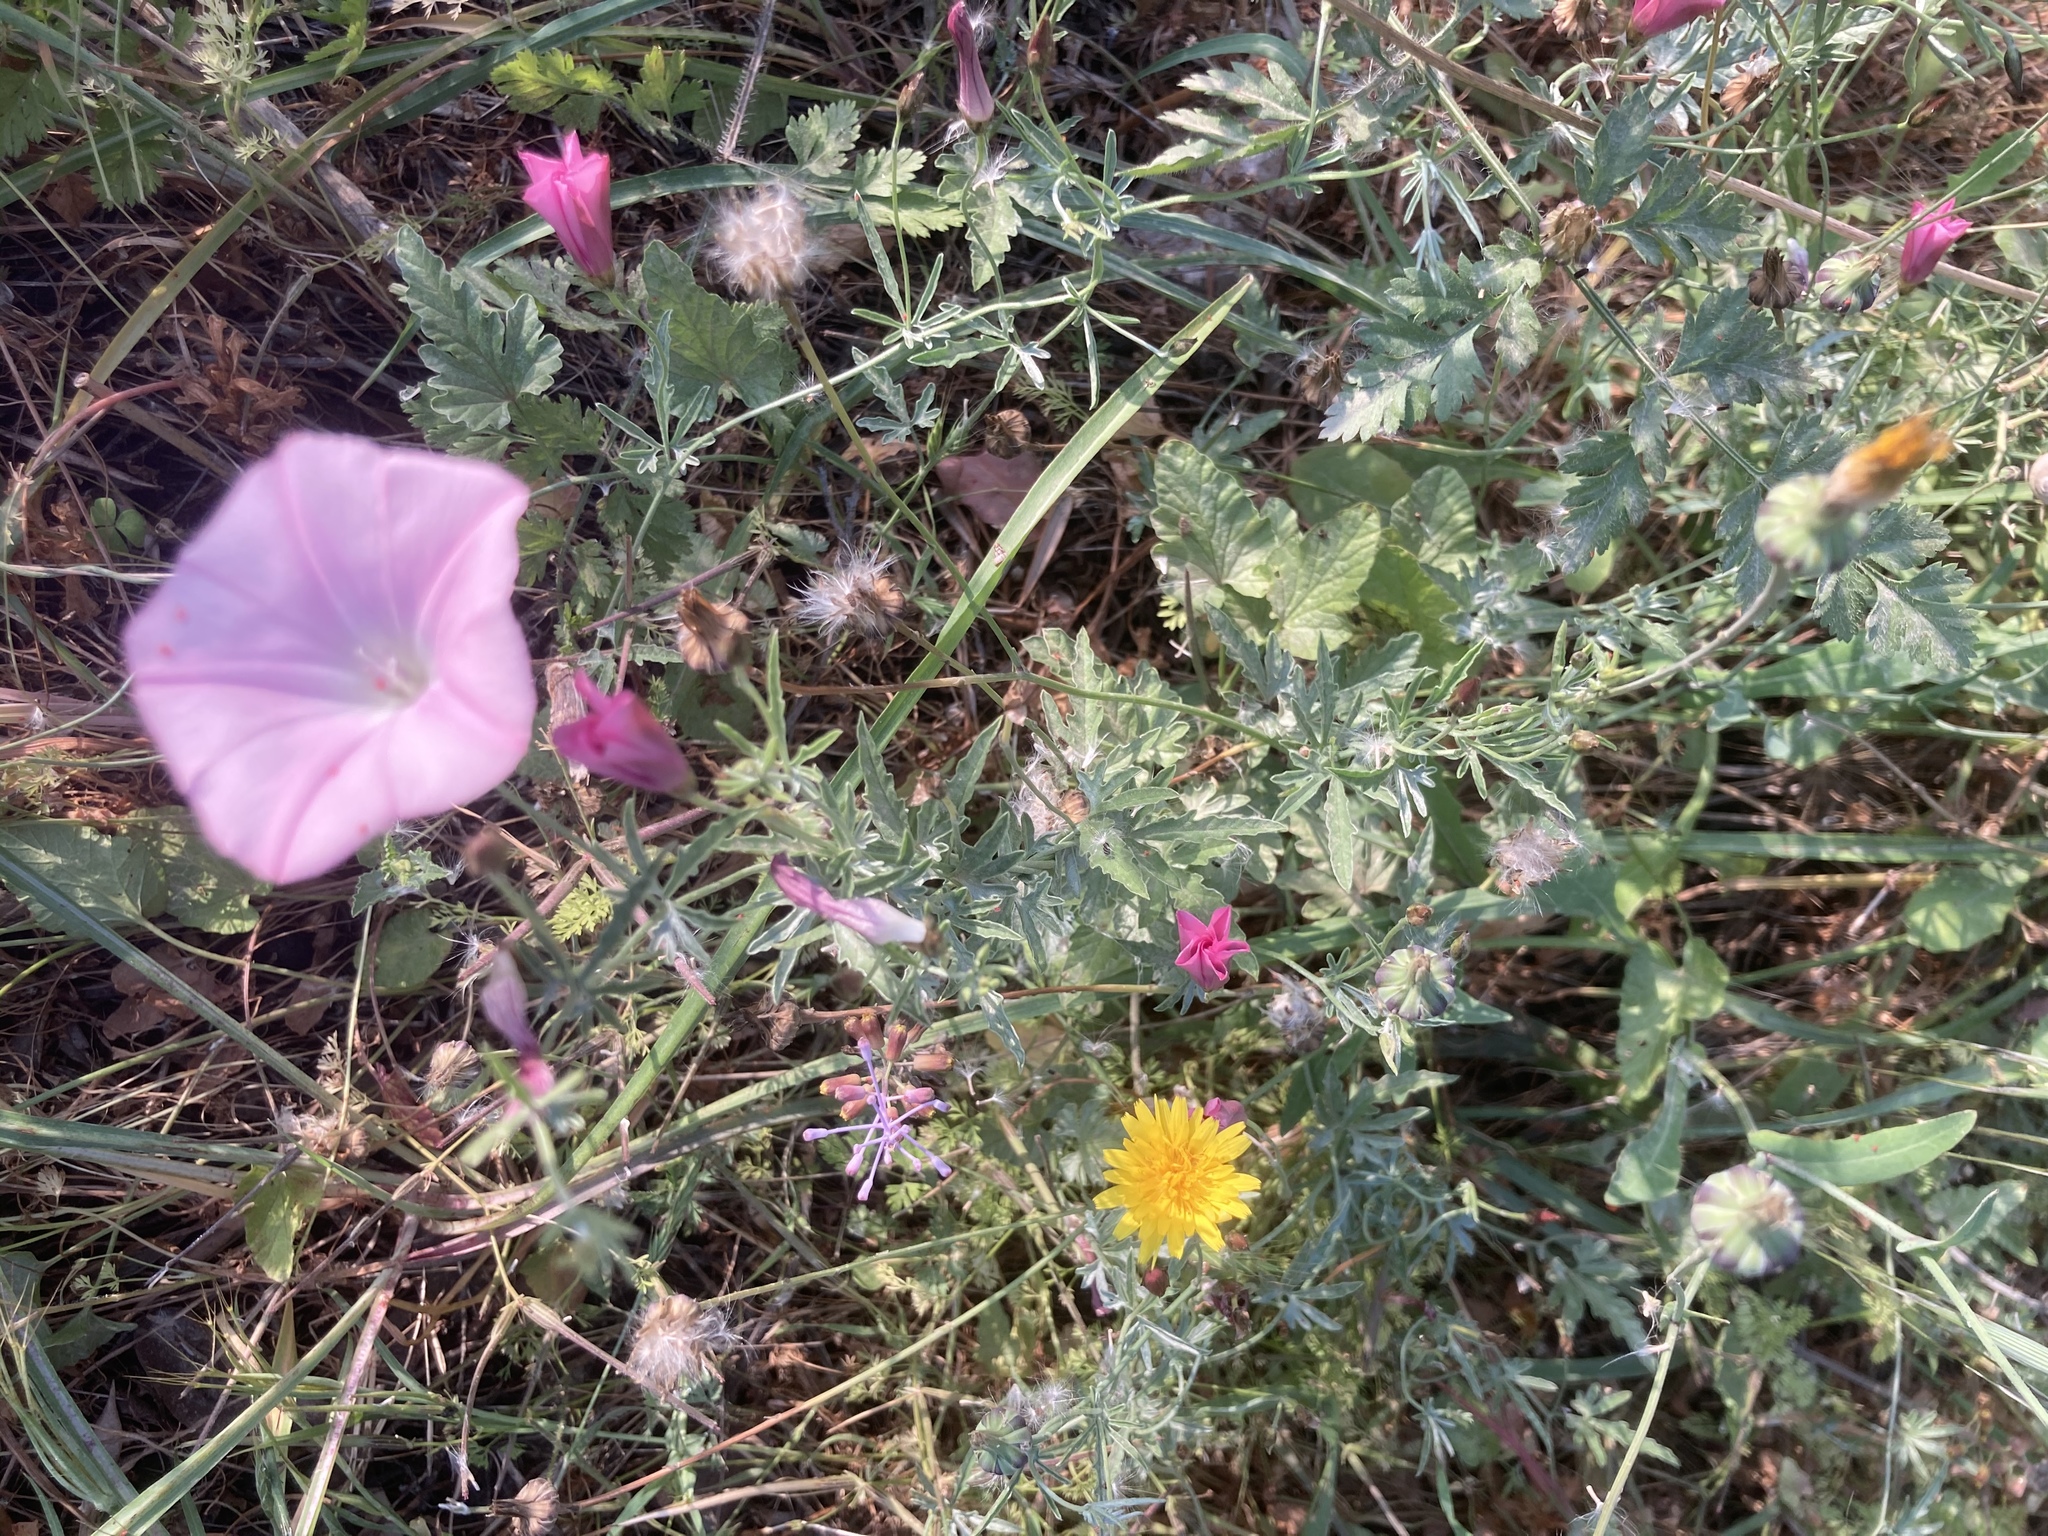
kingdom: Plantae
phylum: Tracheophyta
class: Magnoliopsida
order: Solanales
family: Convolvulaceae
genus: Convolvulus
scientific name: Convolvulus elegantissimus
